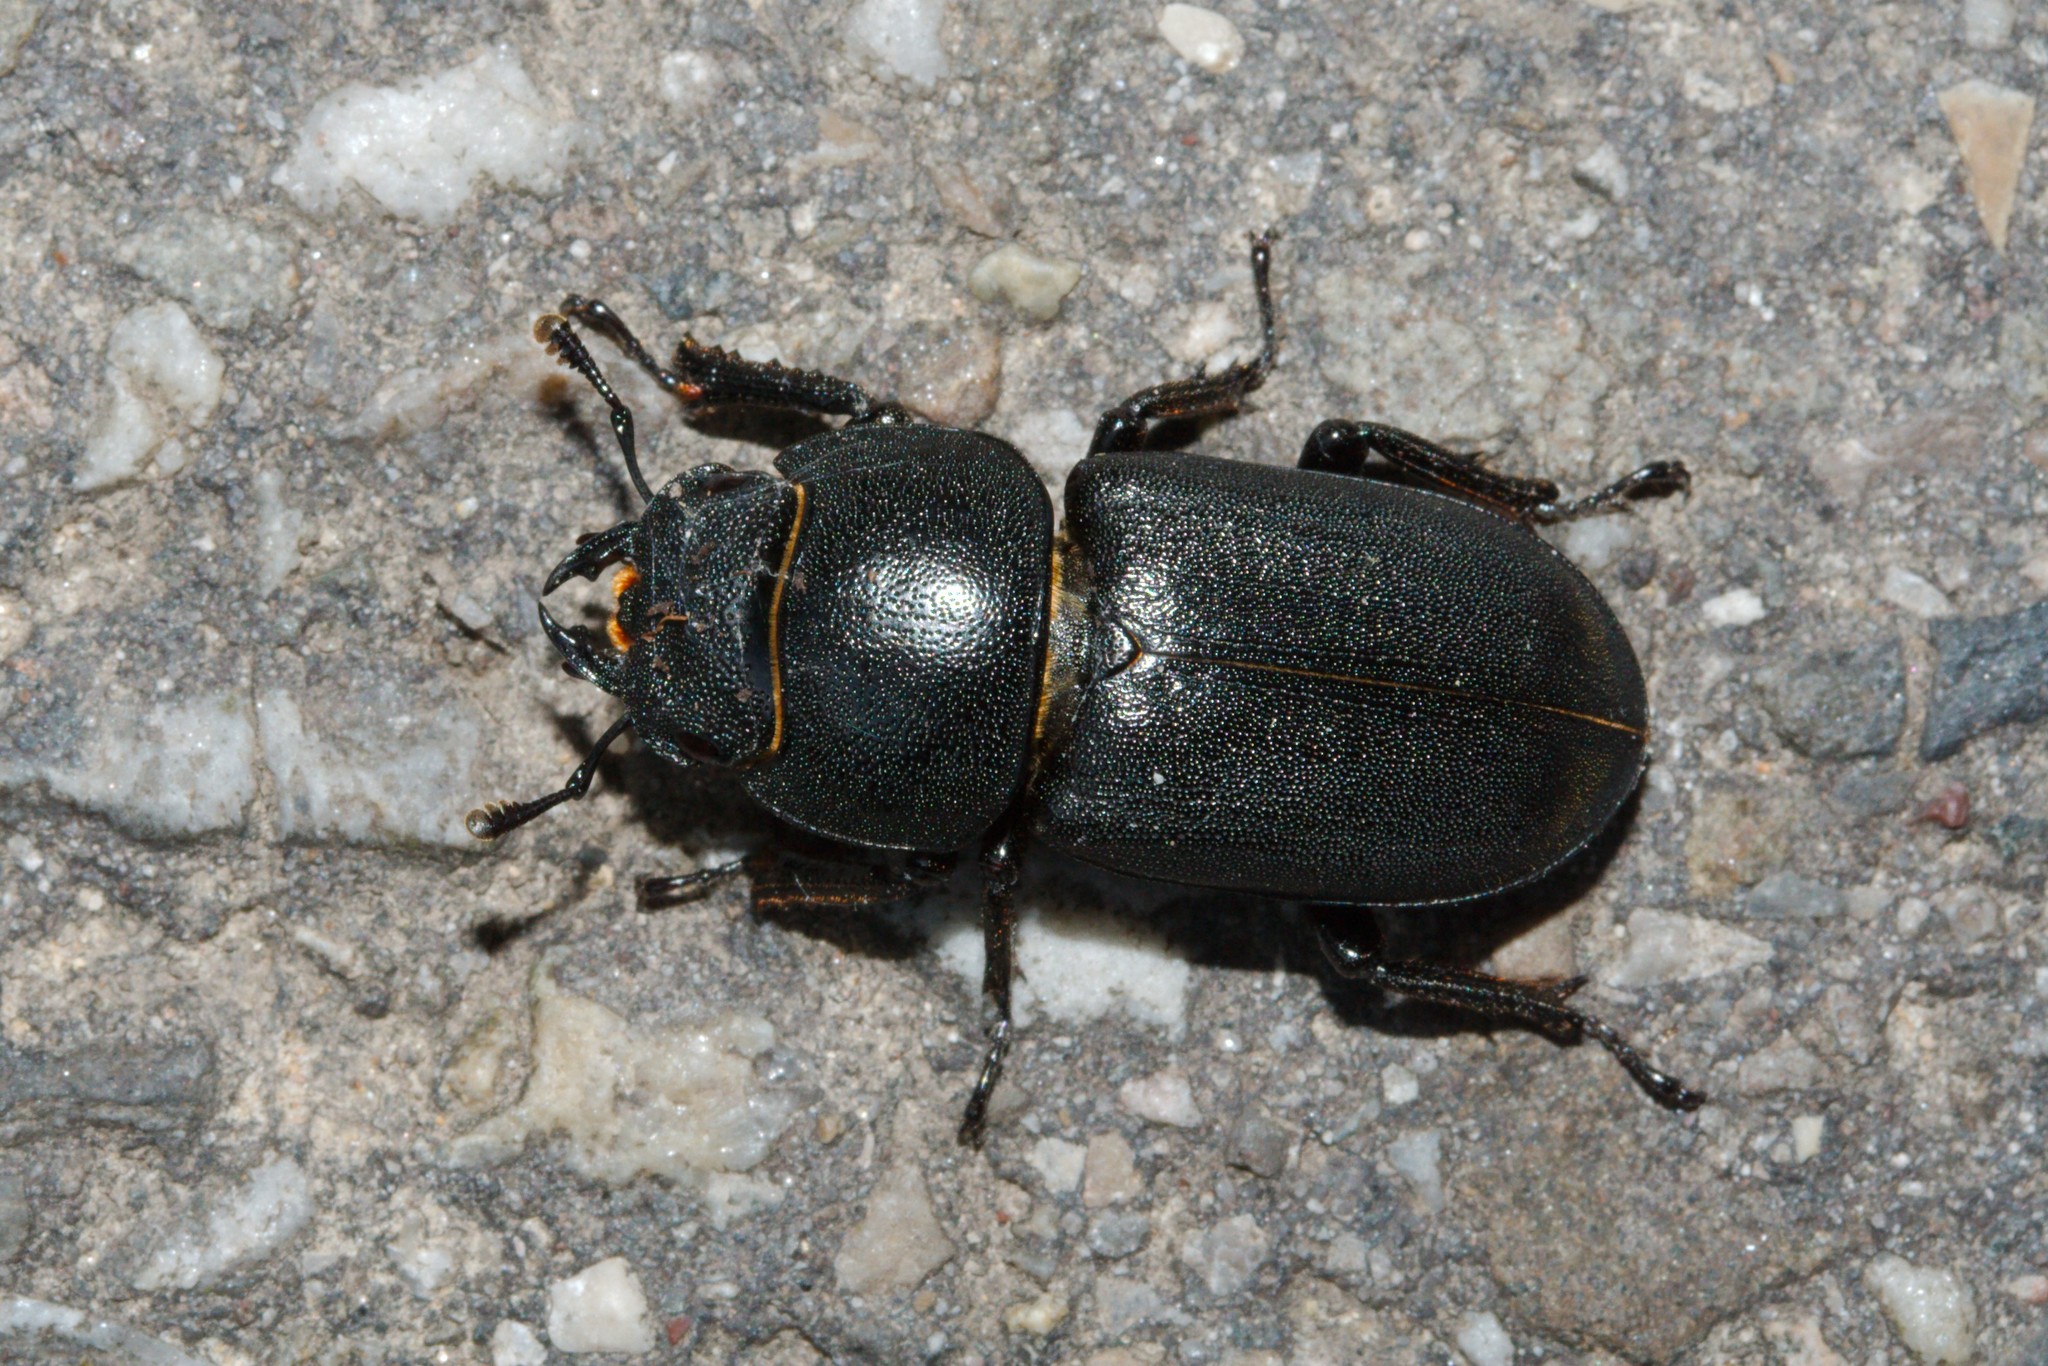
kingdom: Animalia
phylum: Arthropoda
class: Insecta
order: Coleoptera
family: Lucanidae
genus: Dorcus
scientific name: Dorcus parallelipipedus
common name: Lesser stag beetle
